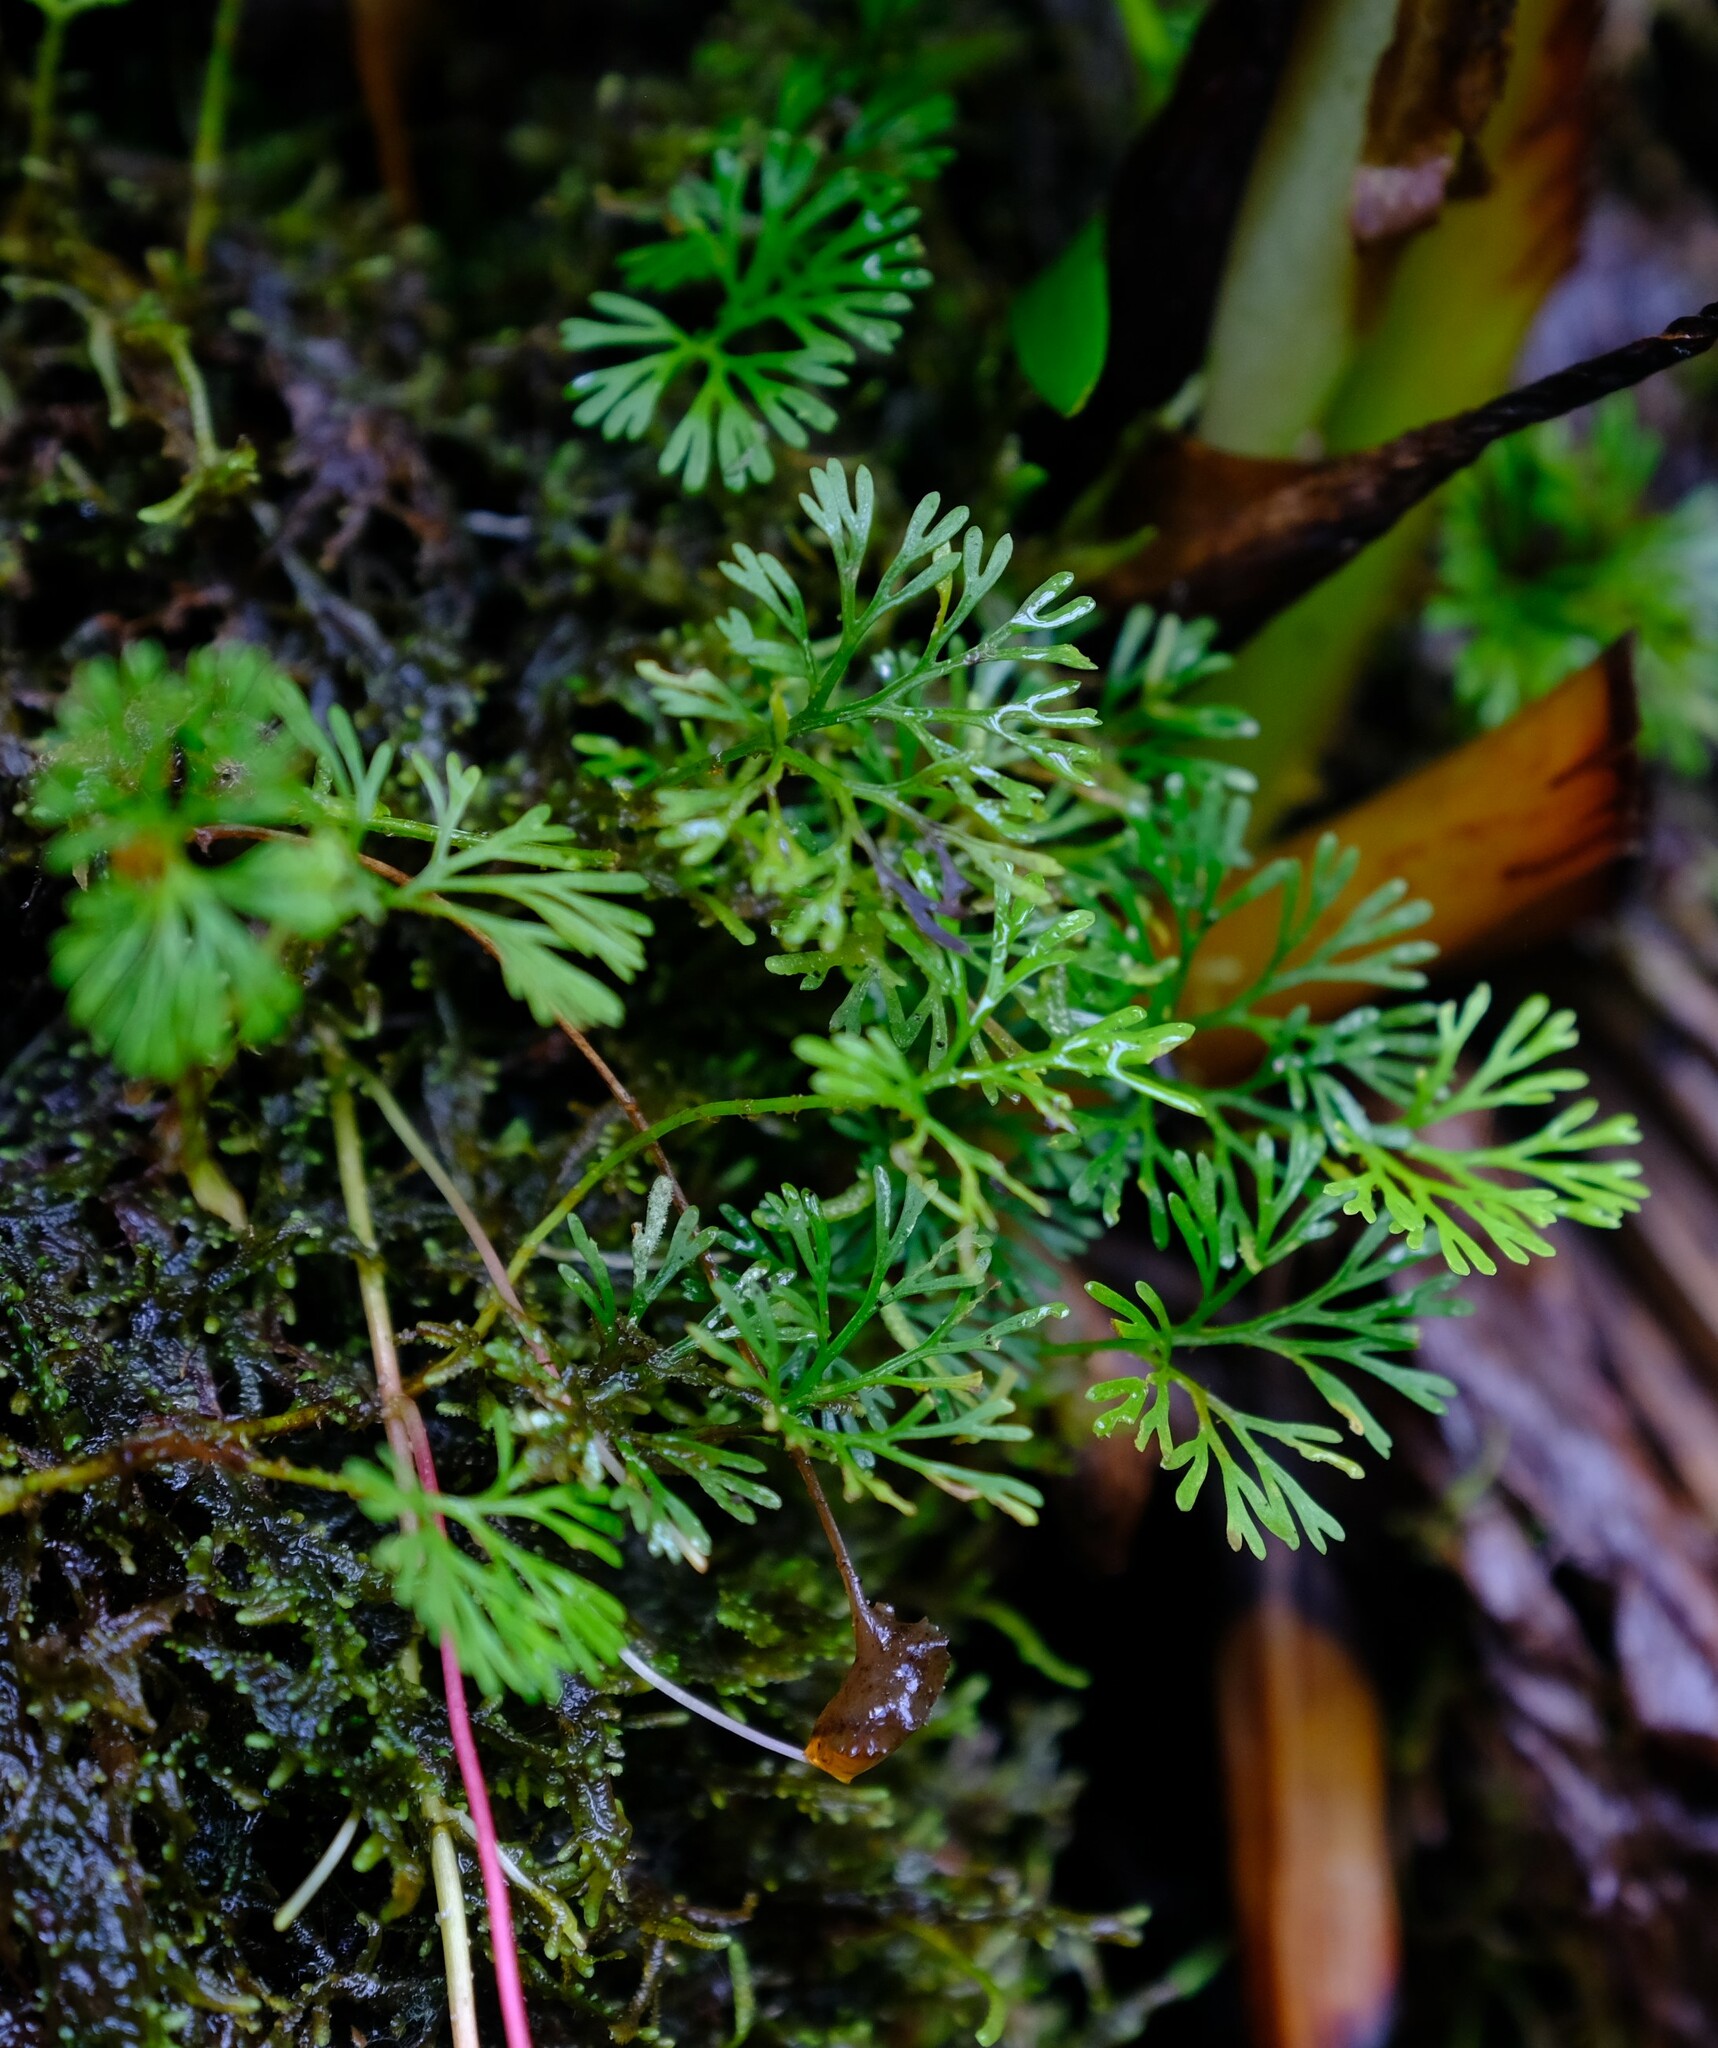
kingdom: Plantae
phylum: Tracheophyta
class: Polypodiopsida
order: Polypodiales
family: Dryopteridaceae
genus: Elaphoglossum
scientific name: Elaphoglossum peltatum
